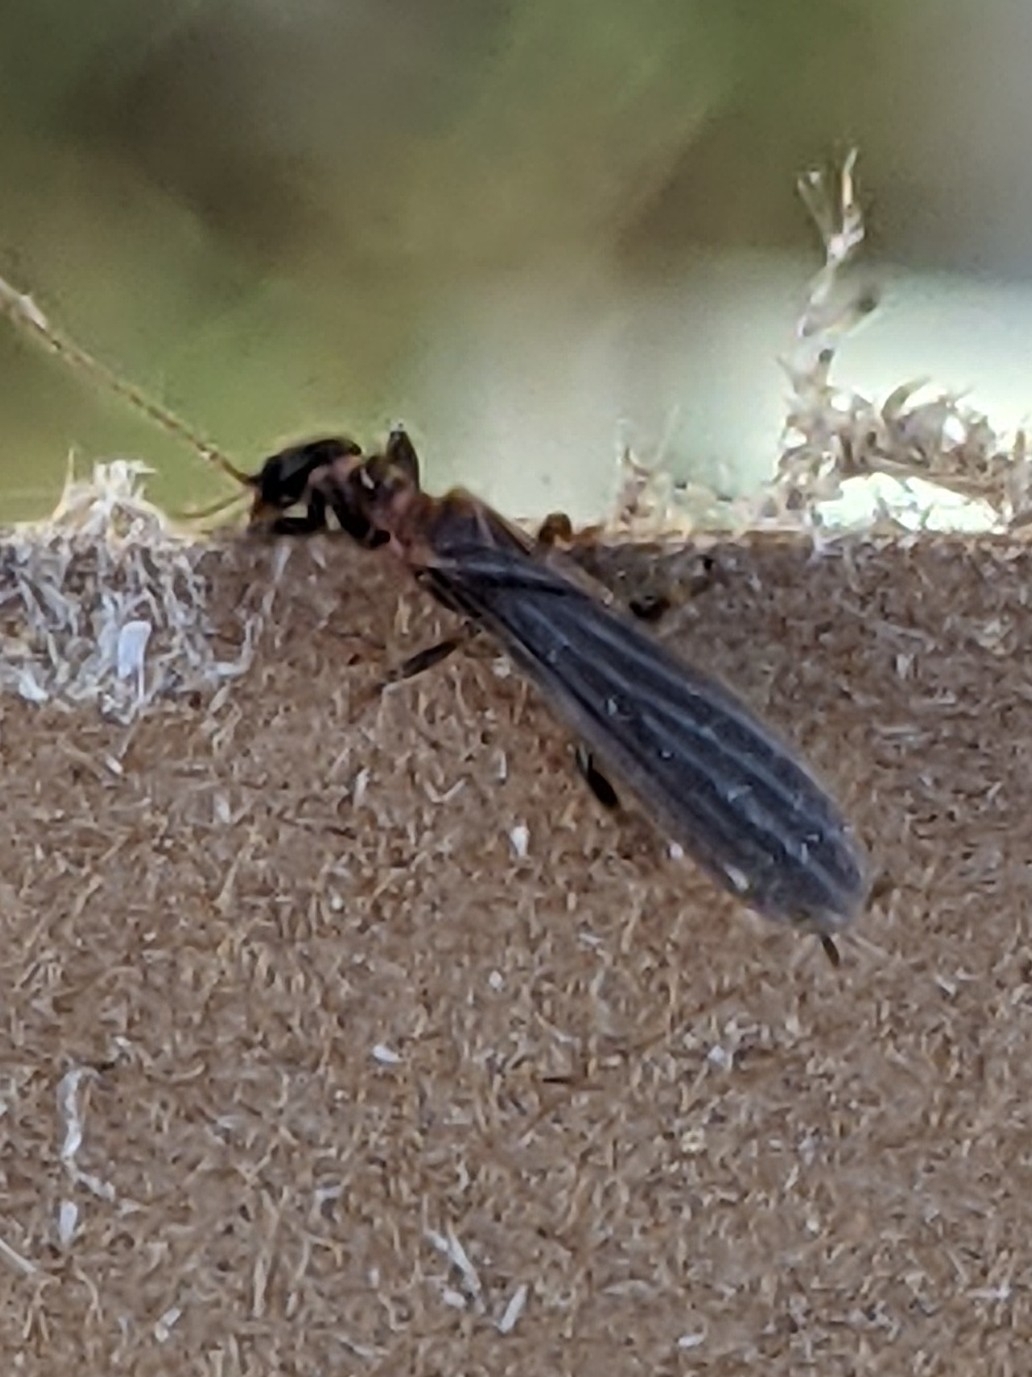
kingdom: Animalia
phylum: Arthropoda
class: Insecta
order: Embioptera
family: Oligotomidae
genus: Oligotoma
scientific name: Oligotoma nigra
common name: Black webspinner
